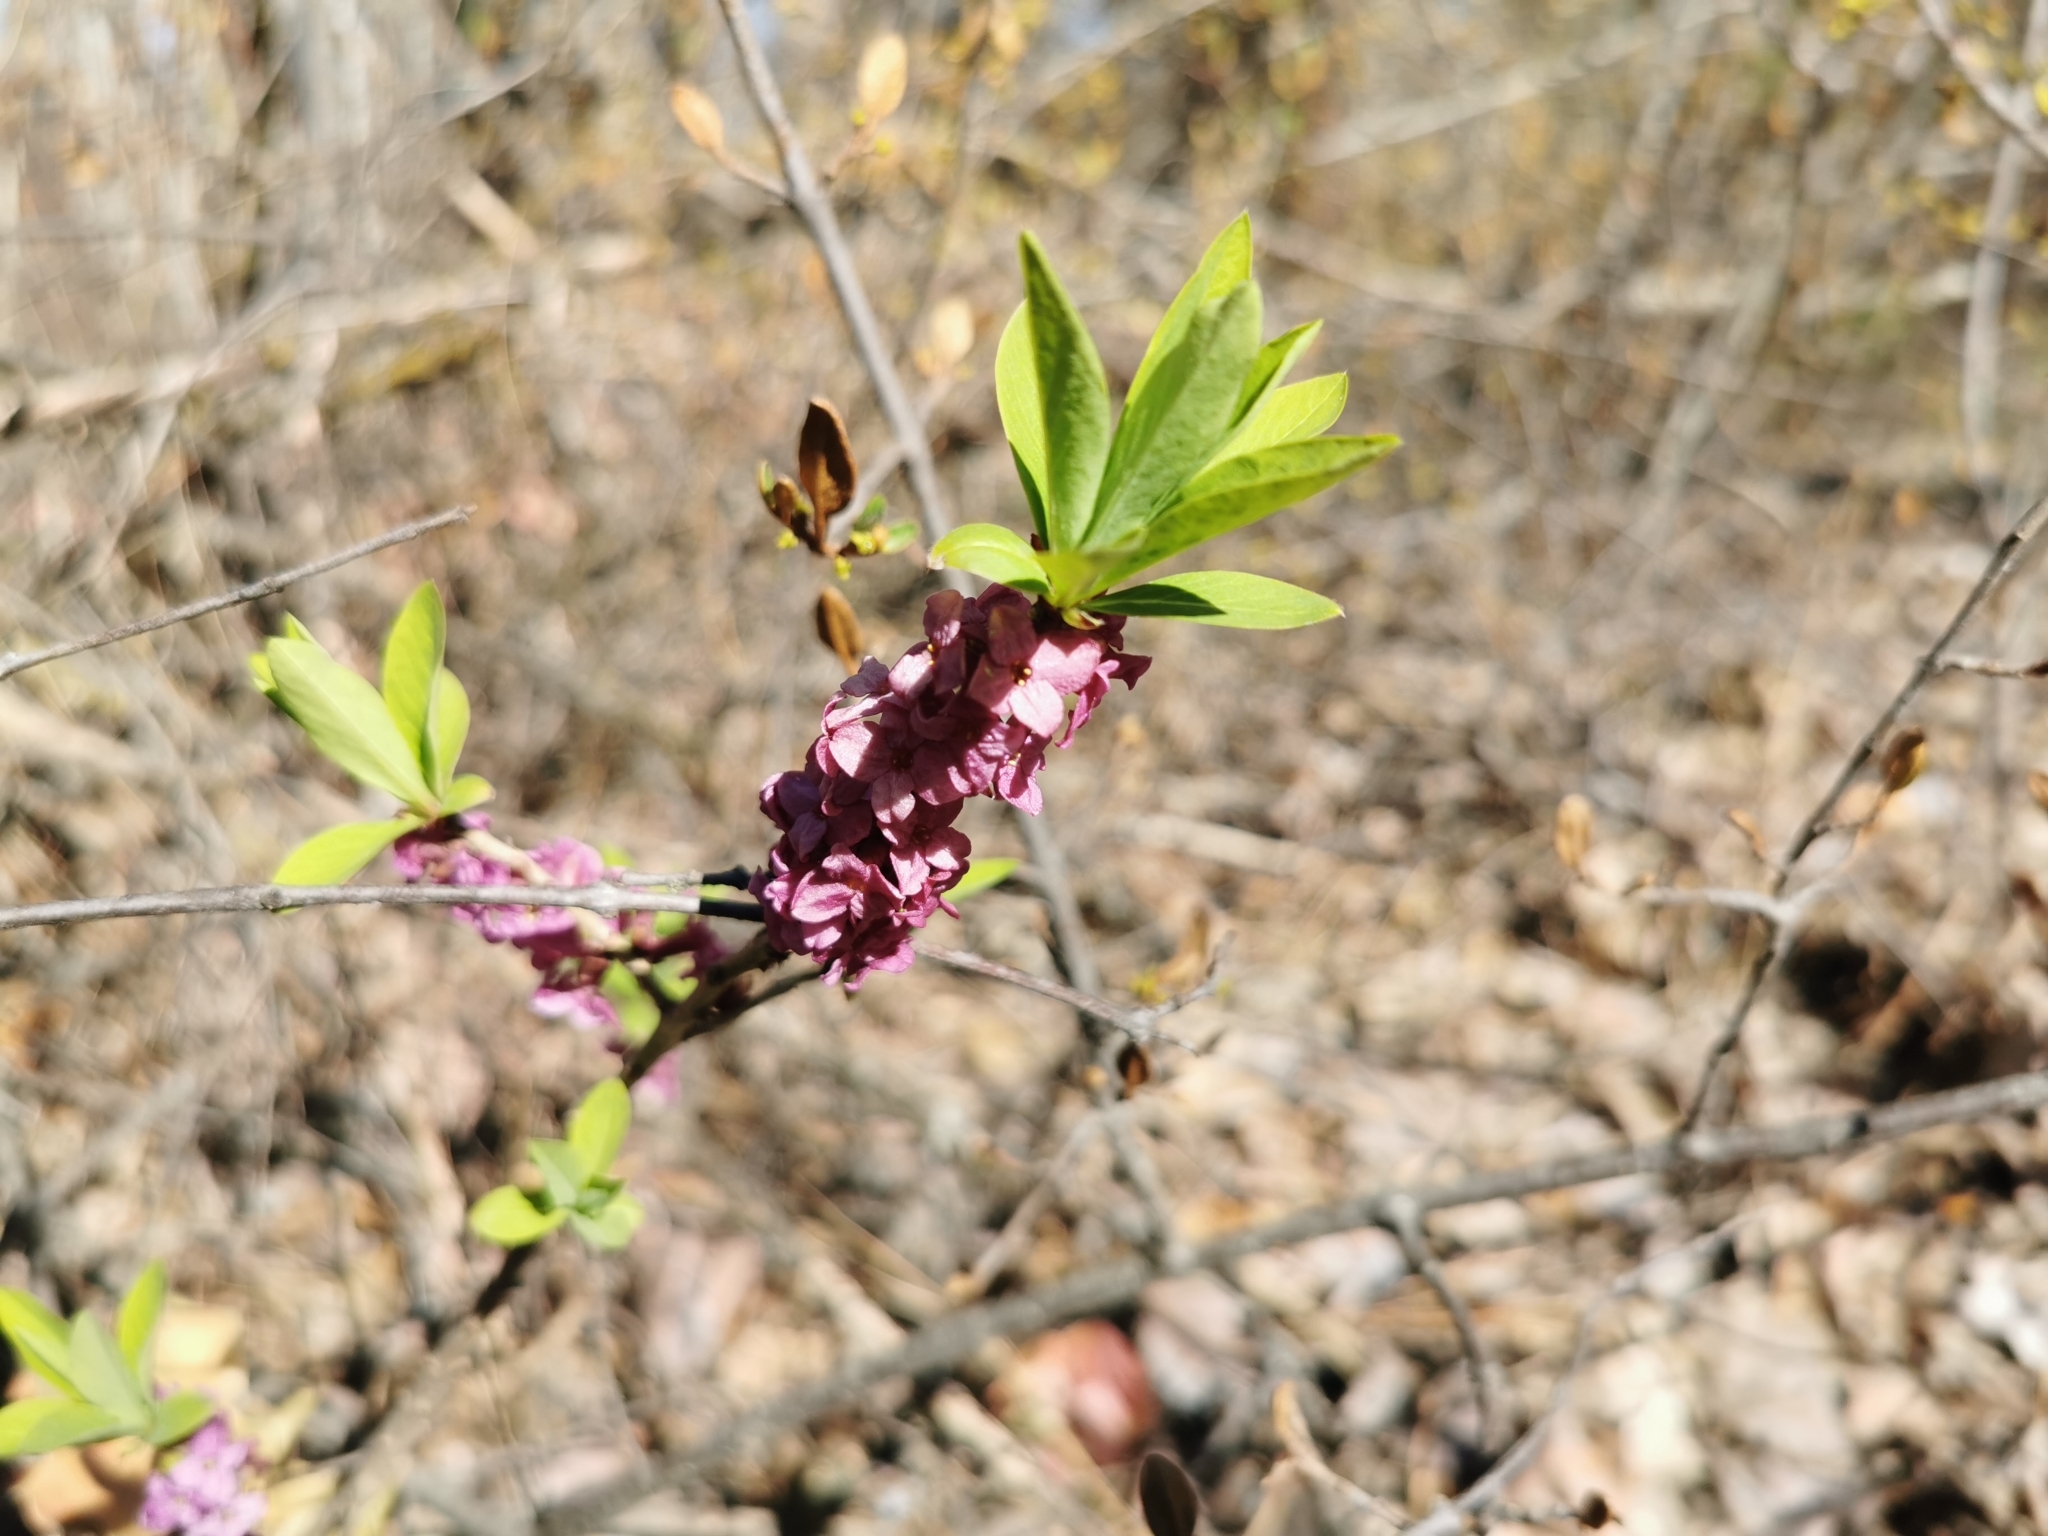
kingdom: Plantae
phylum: Tracheophyta
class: Magnoliopsida
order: Malvales
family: Thymelaeaceae
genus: Daphne
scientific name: Daphne mezereum
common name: Mezereon
